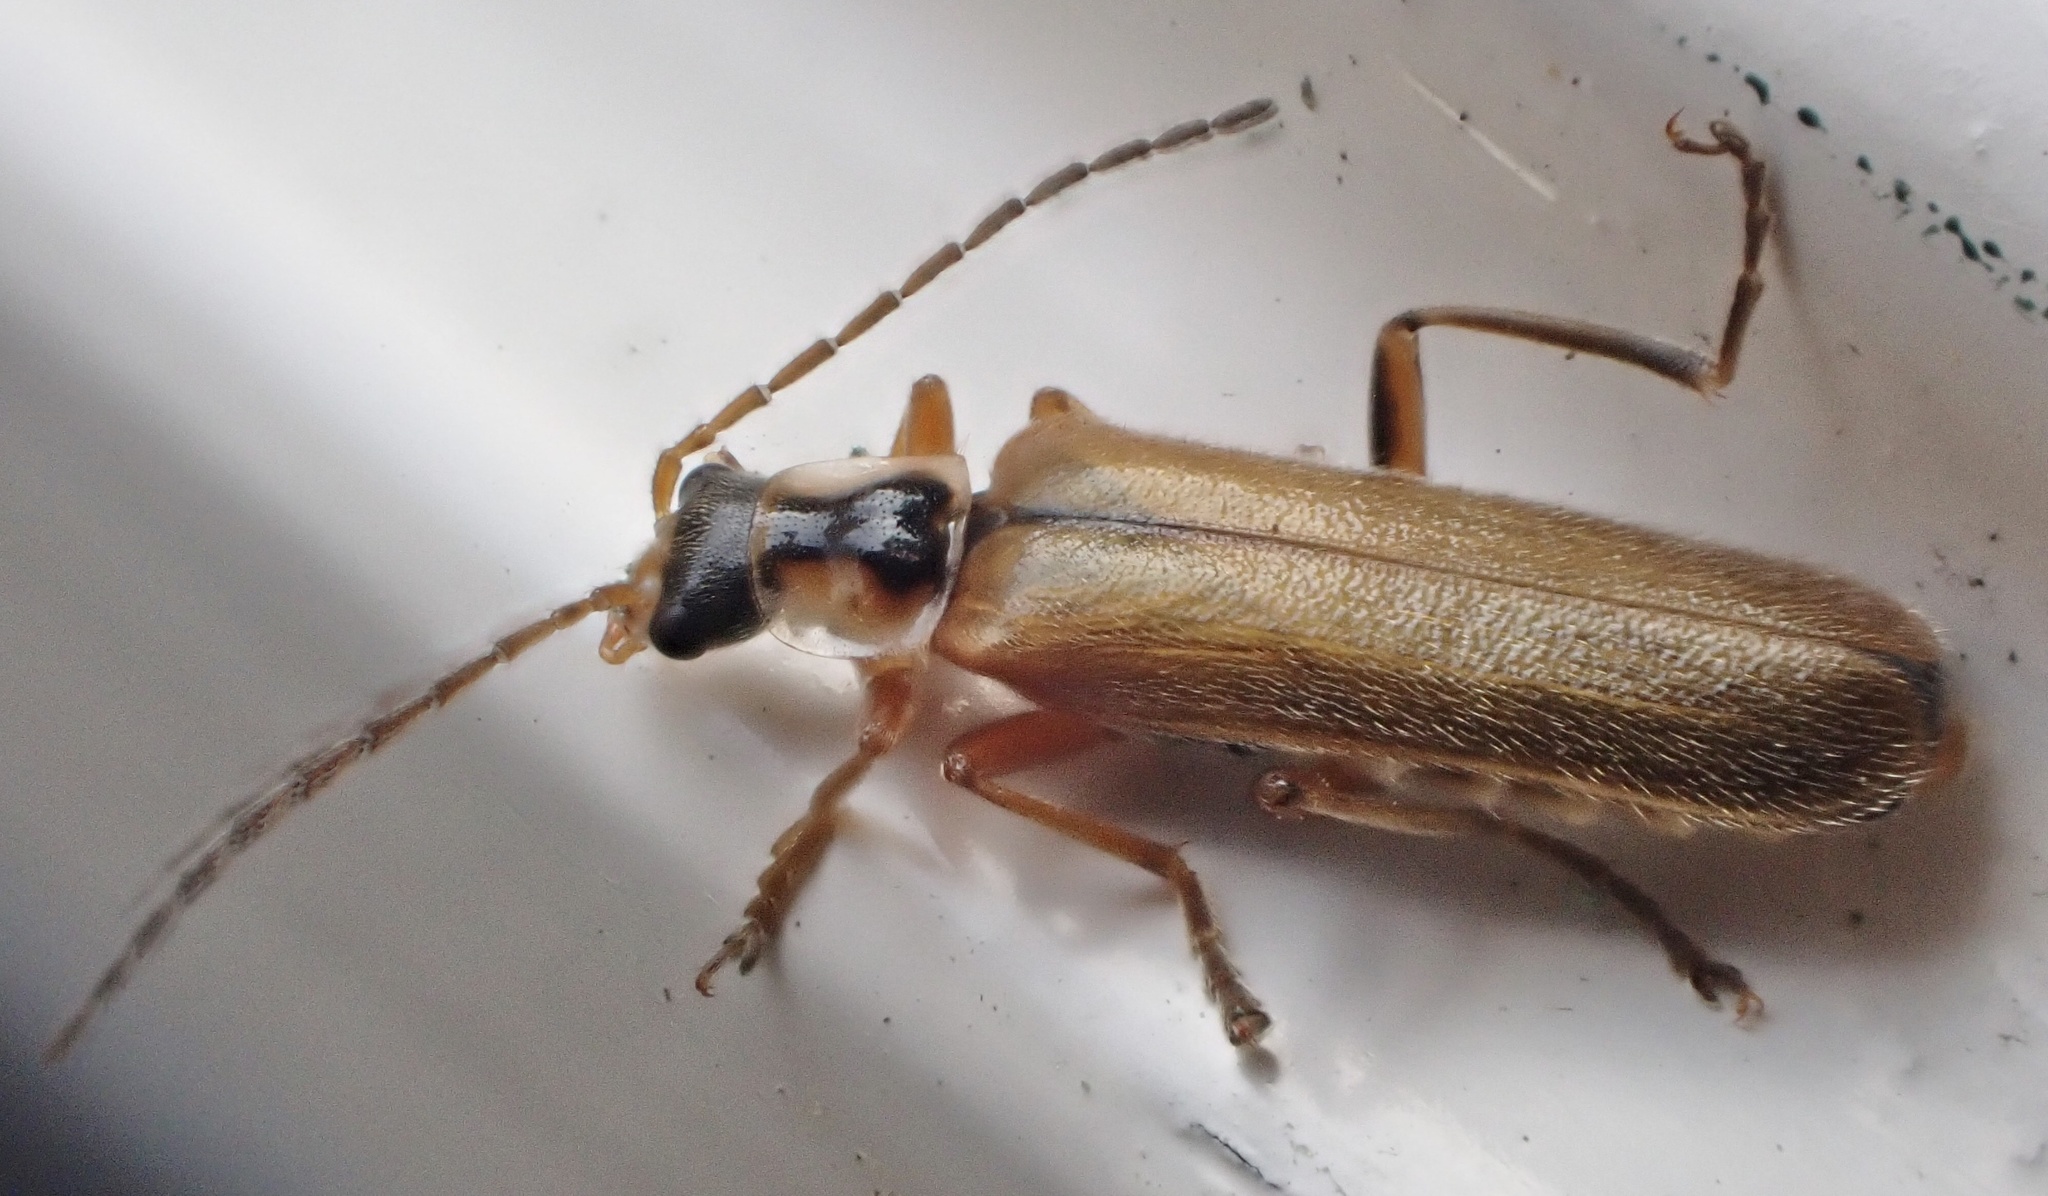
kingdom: Animalia
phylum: Arthropoda
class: Insecta
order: Coleoptera
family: Cantharidae
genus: Cantharis
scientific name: Cantharis decipiens
